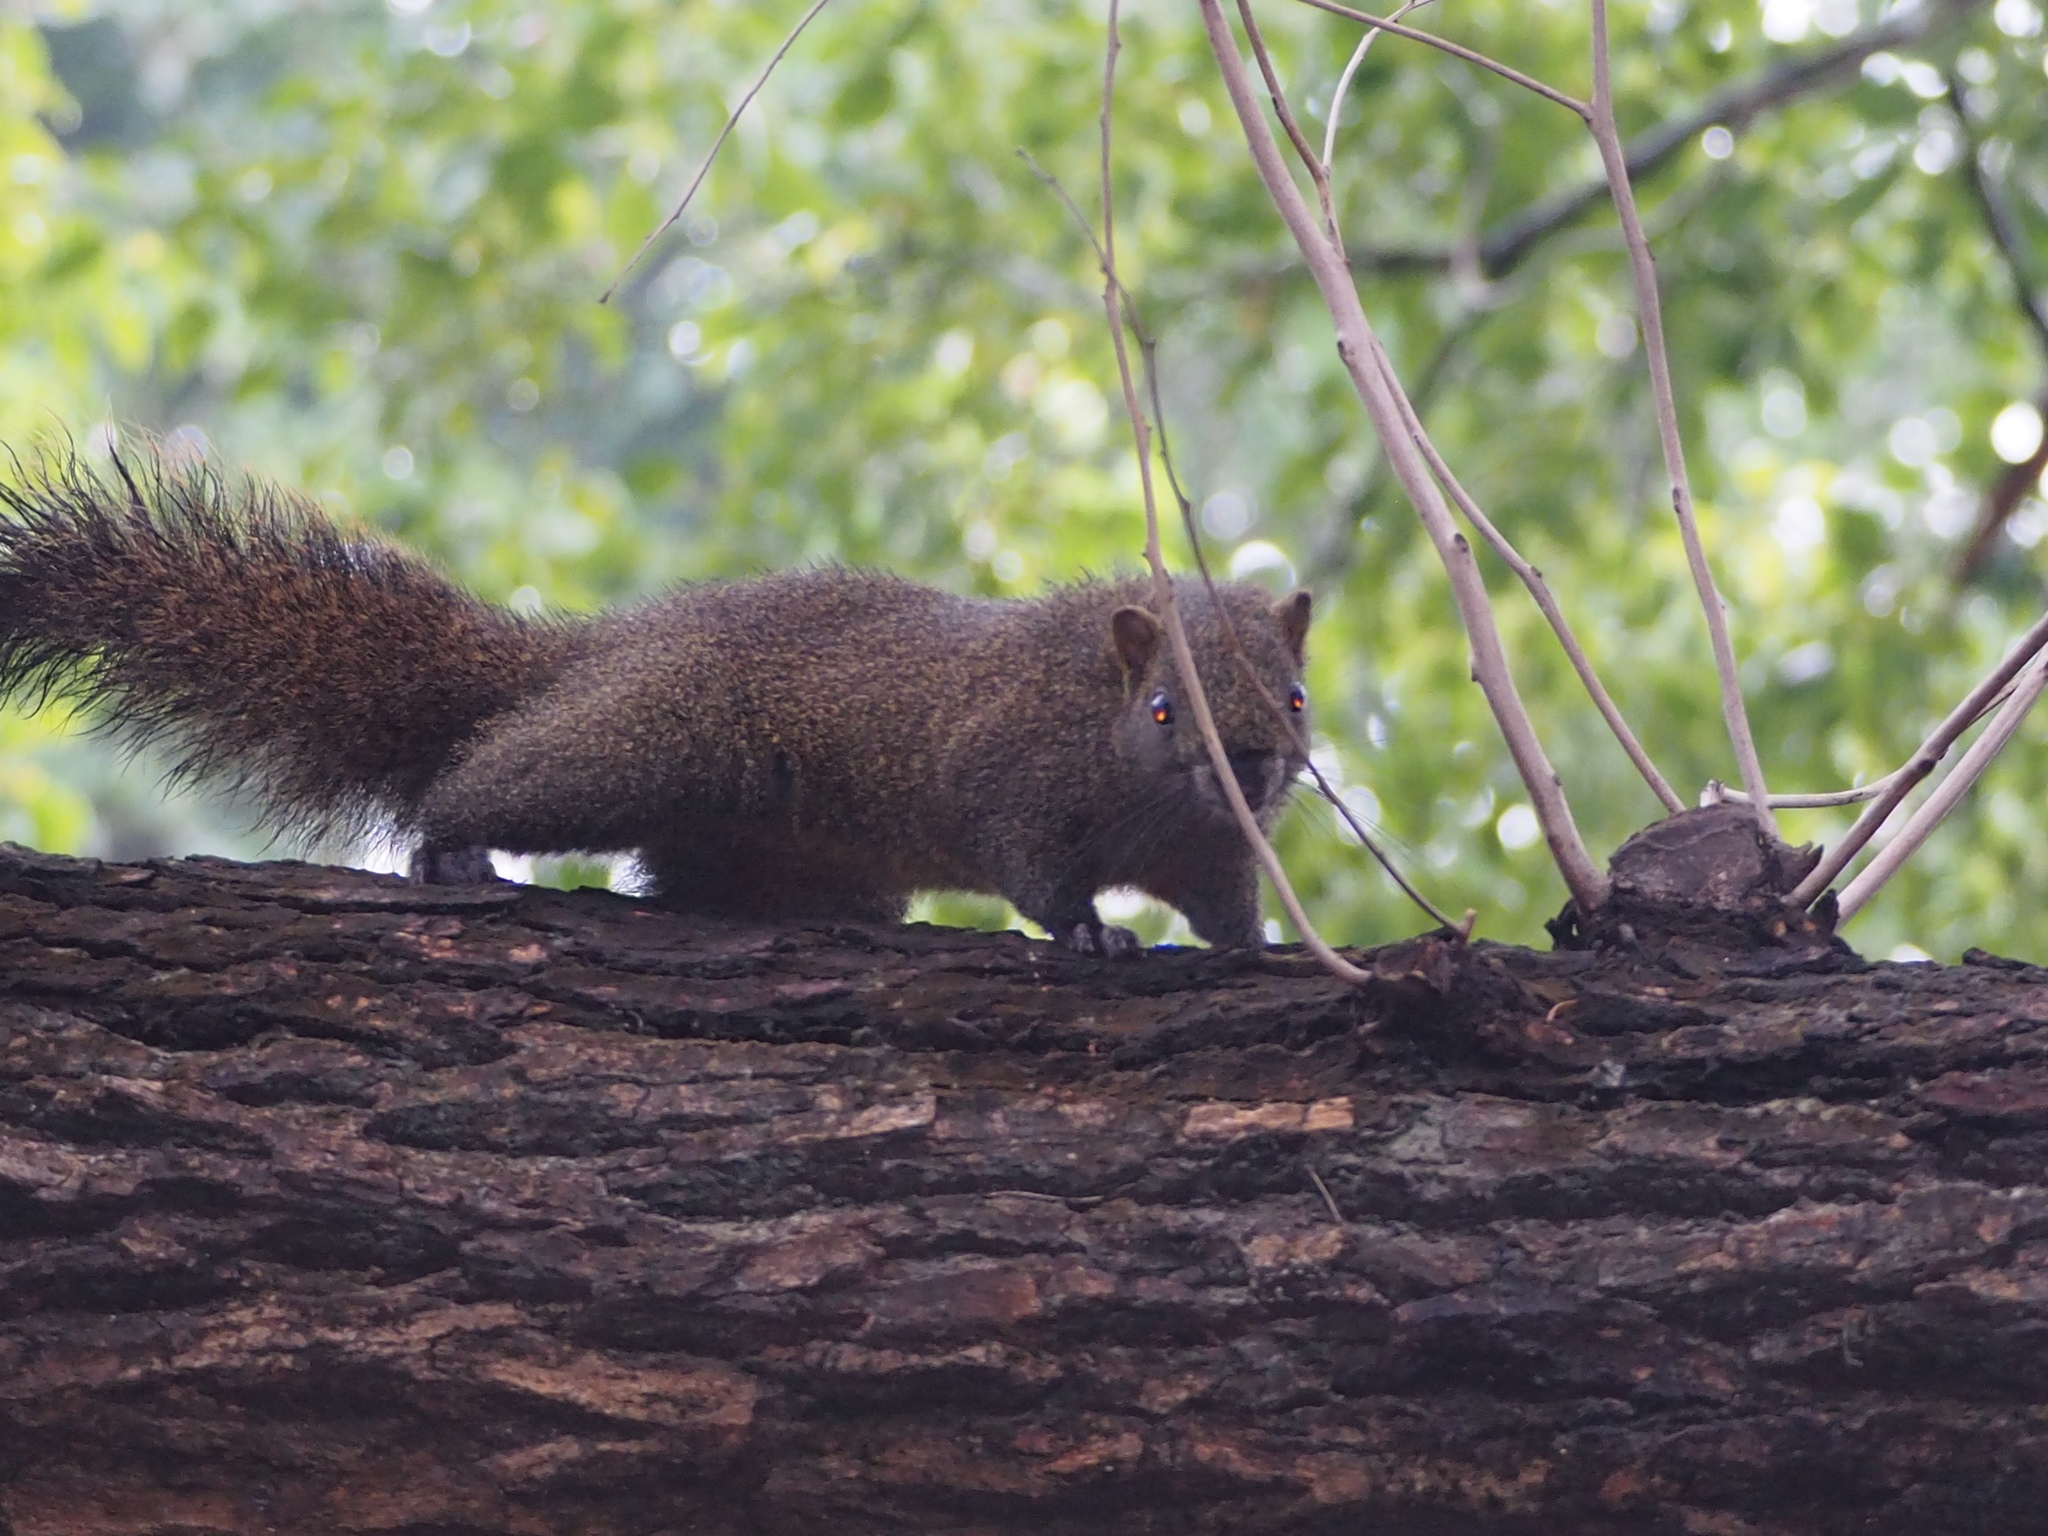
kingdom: Animalia
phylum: Chordata
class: Mammalia
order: Rodentia
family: Sciuridae
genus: Callosciurus
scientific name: Callosciurus erythraeus
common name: Pallas's squirrel
